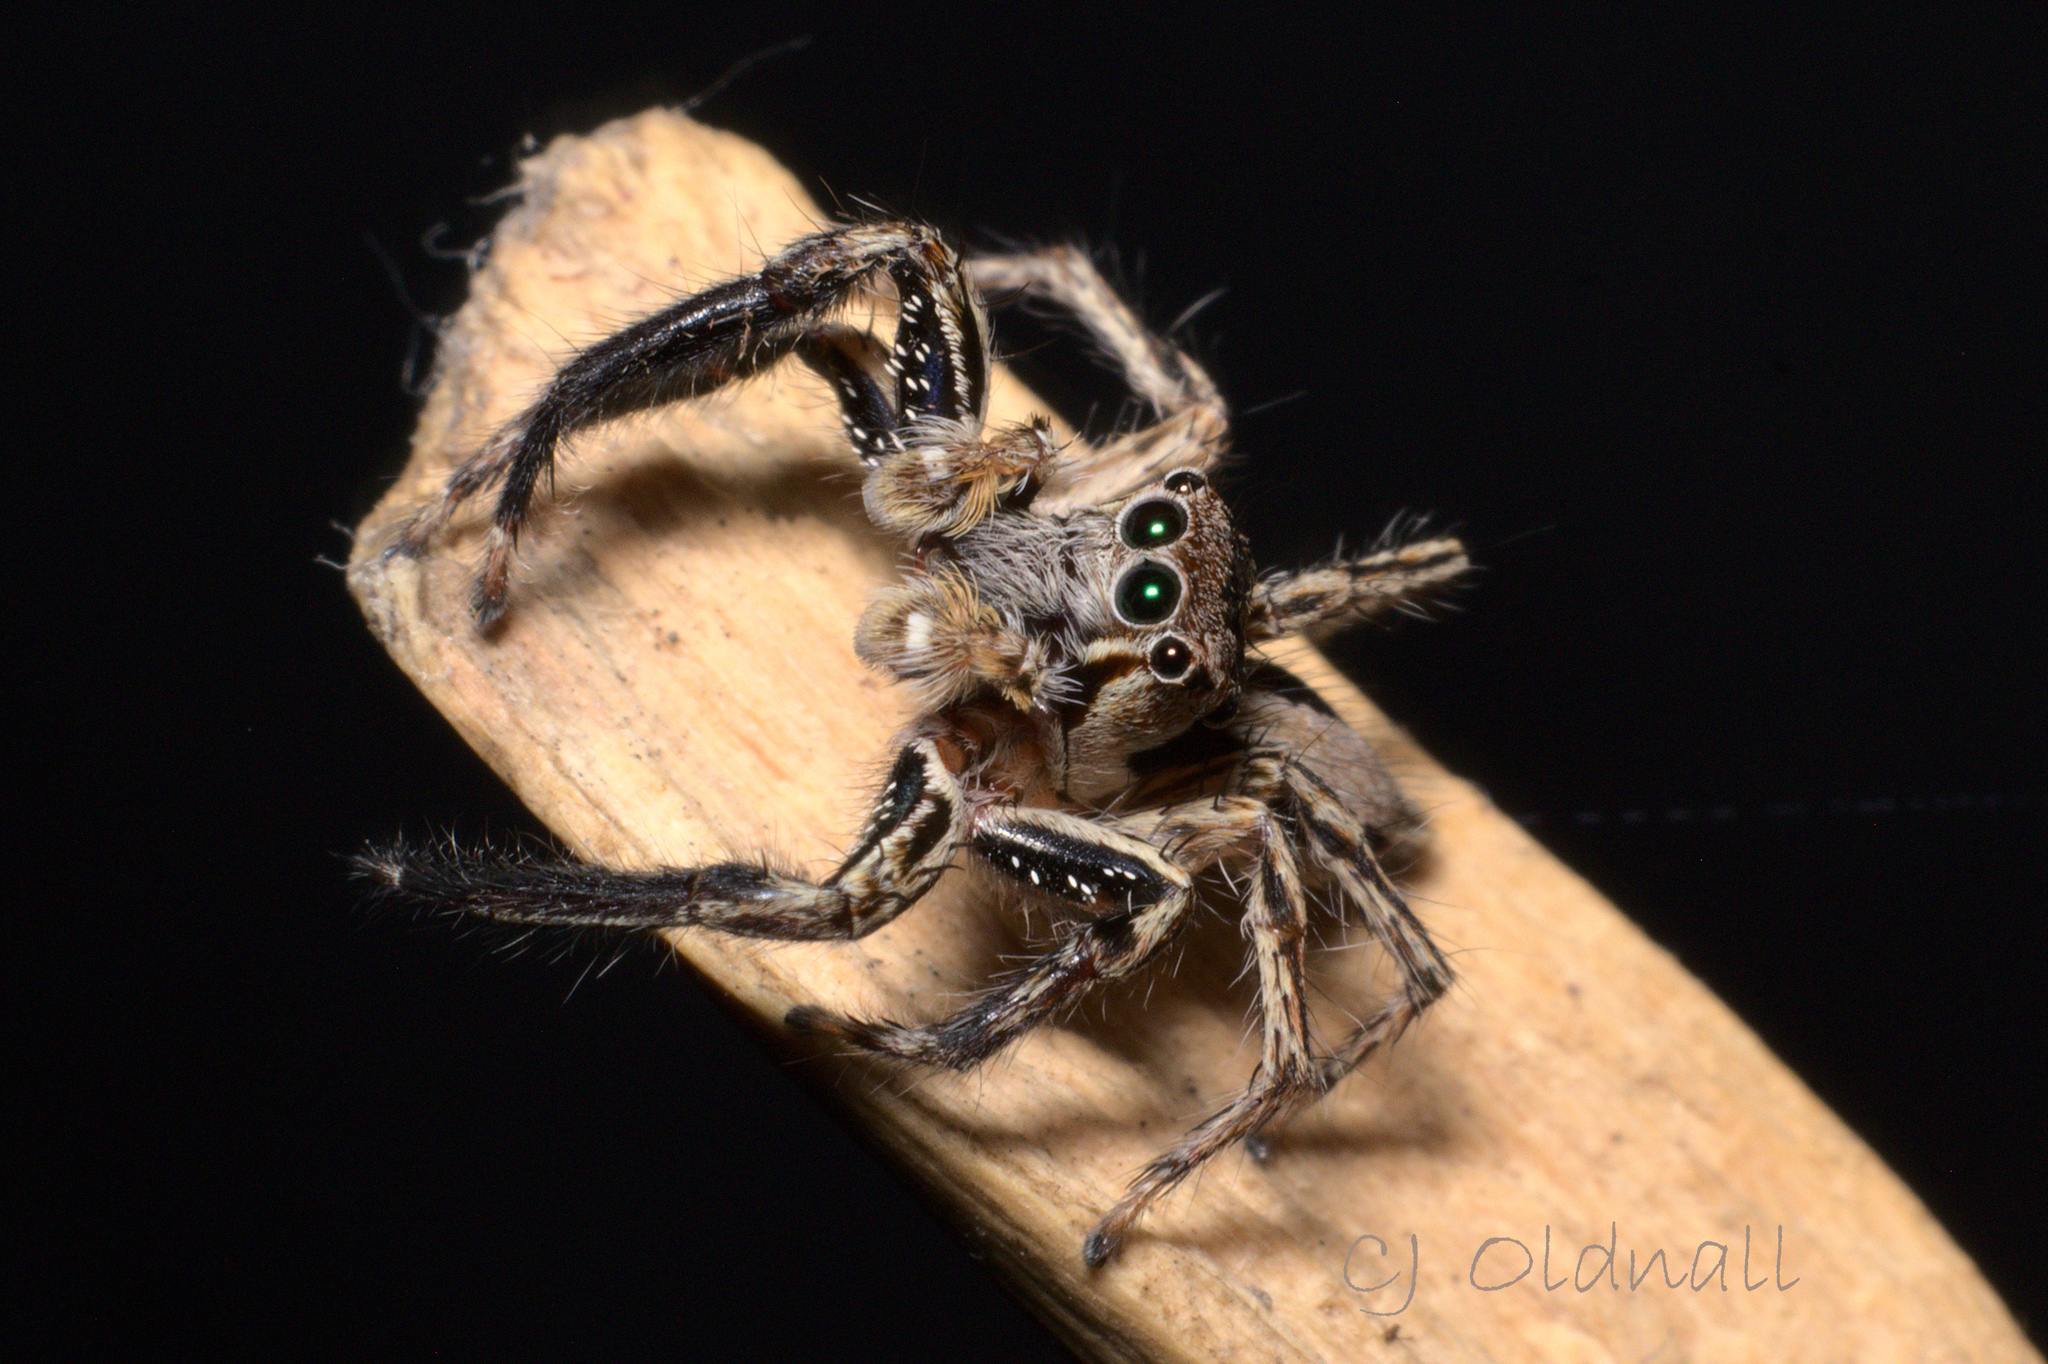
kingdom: Animalia
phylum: Arthropoda
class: Arachnida
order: Araneae
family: Salticidae
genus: Plexippus
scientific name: Plexippus petersi
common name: Jumping spider
